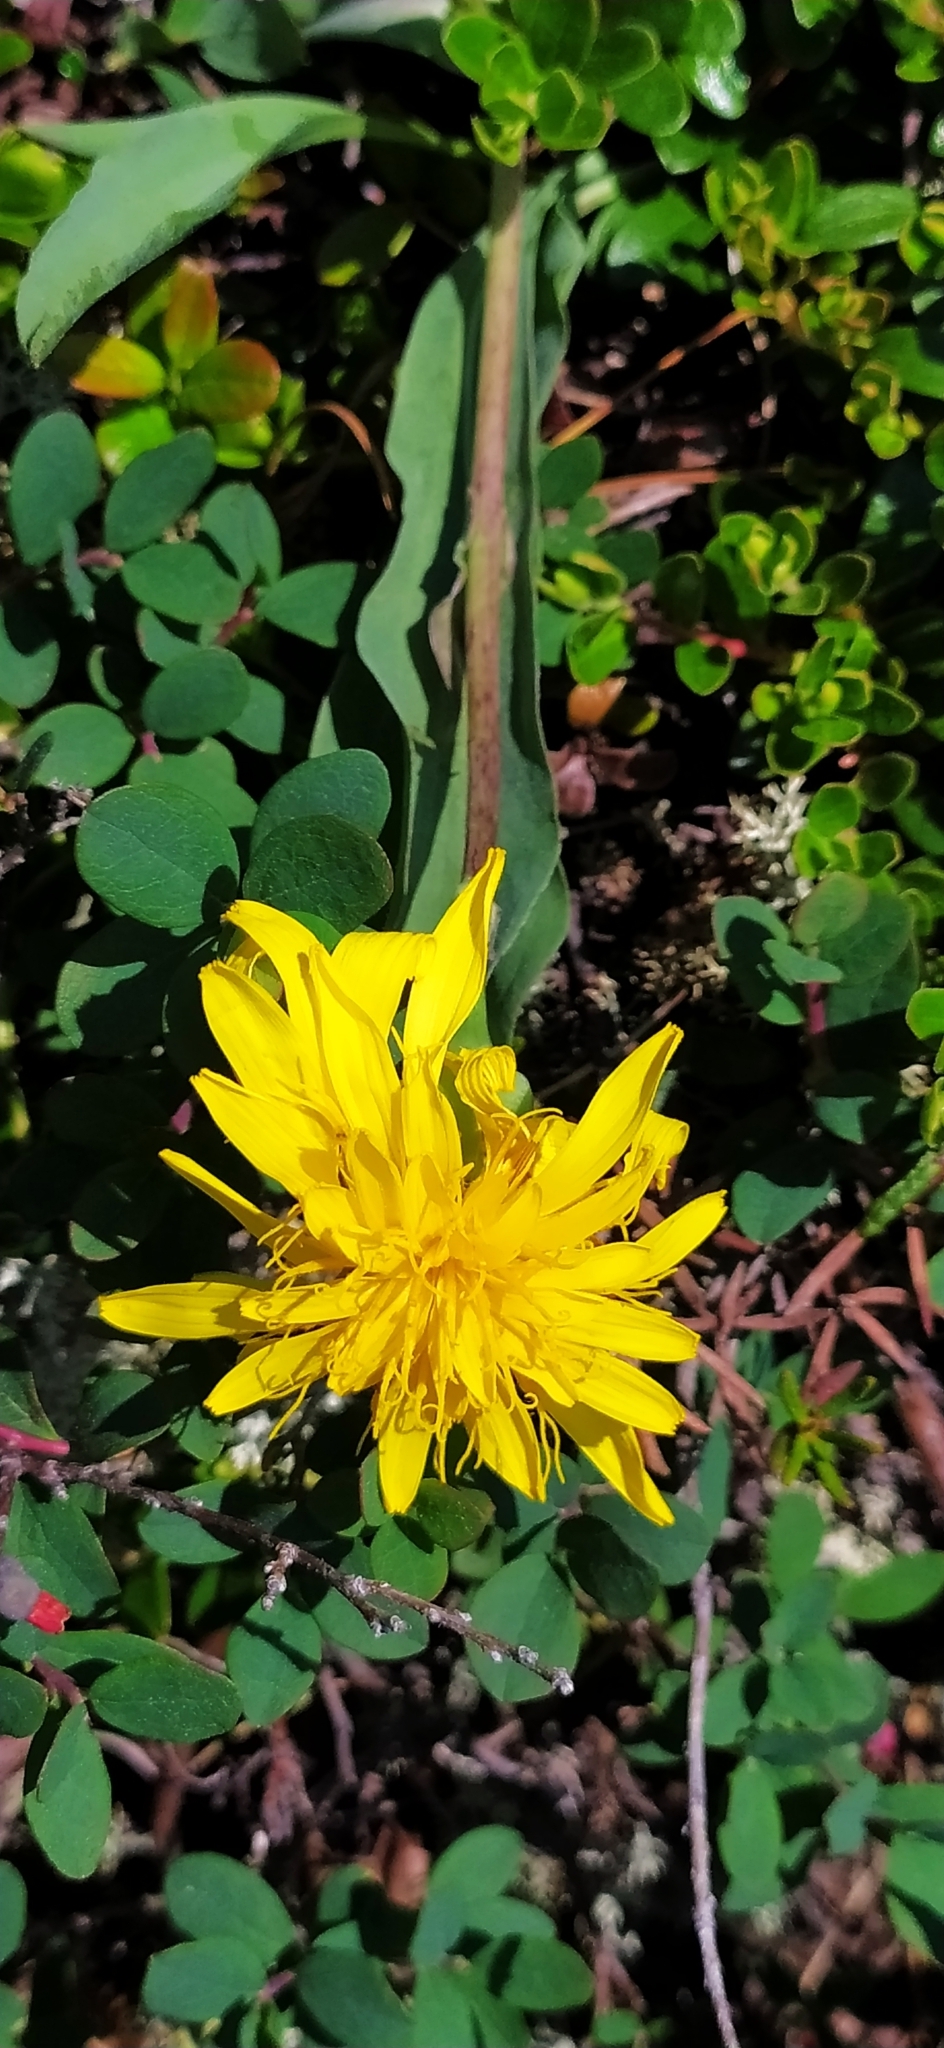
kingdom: Plantae
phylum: Tracheophyta
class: Magnoliopsida
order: Asterales
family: Asteraceae
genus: Scorzonera
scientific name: Scorzonera glabra
